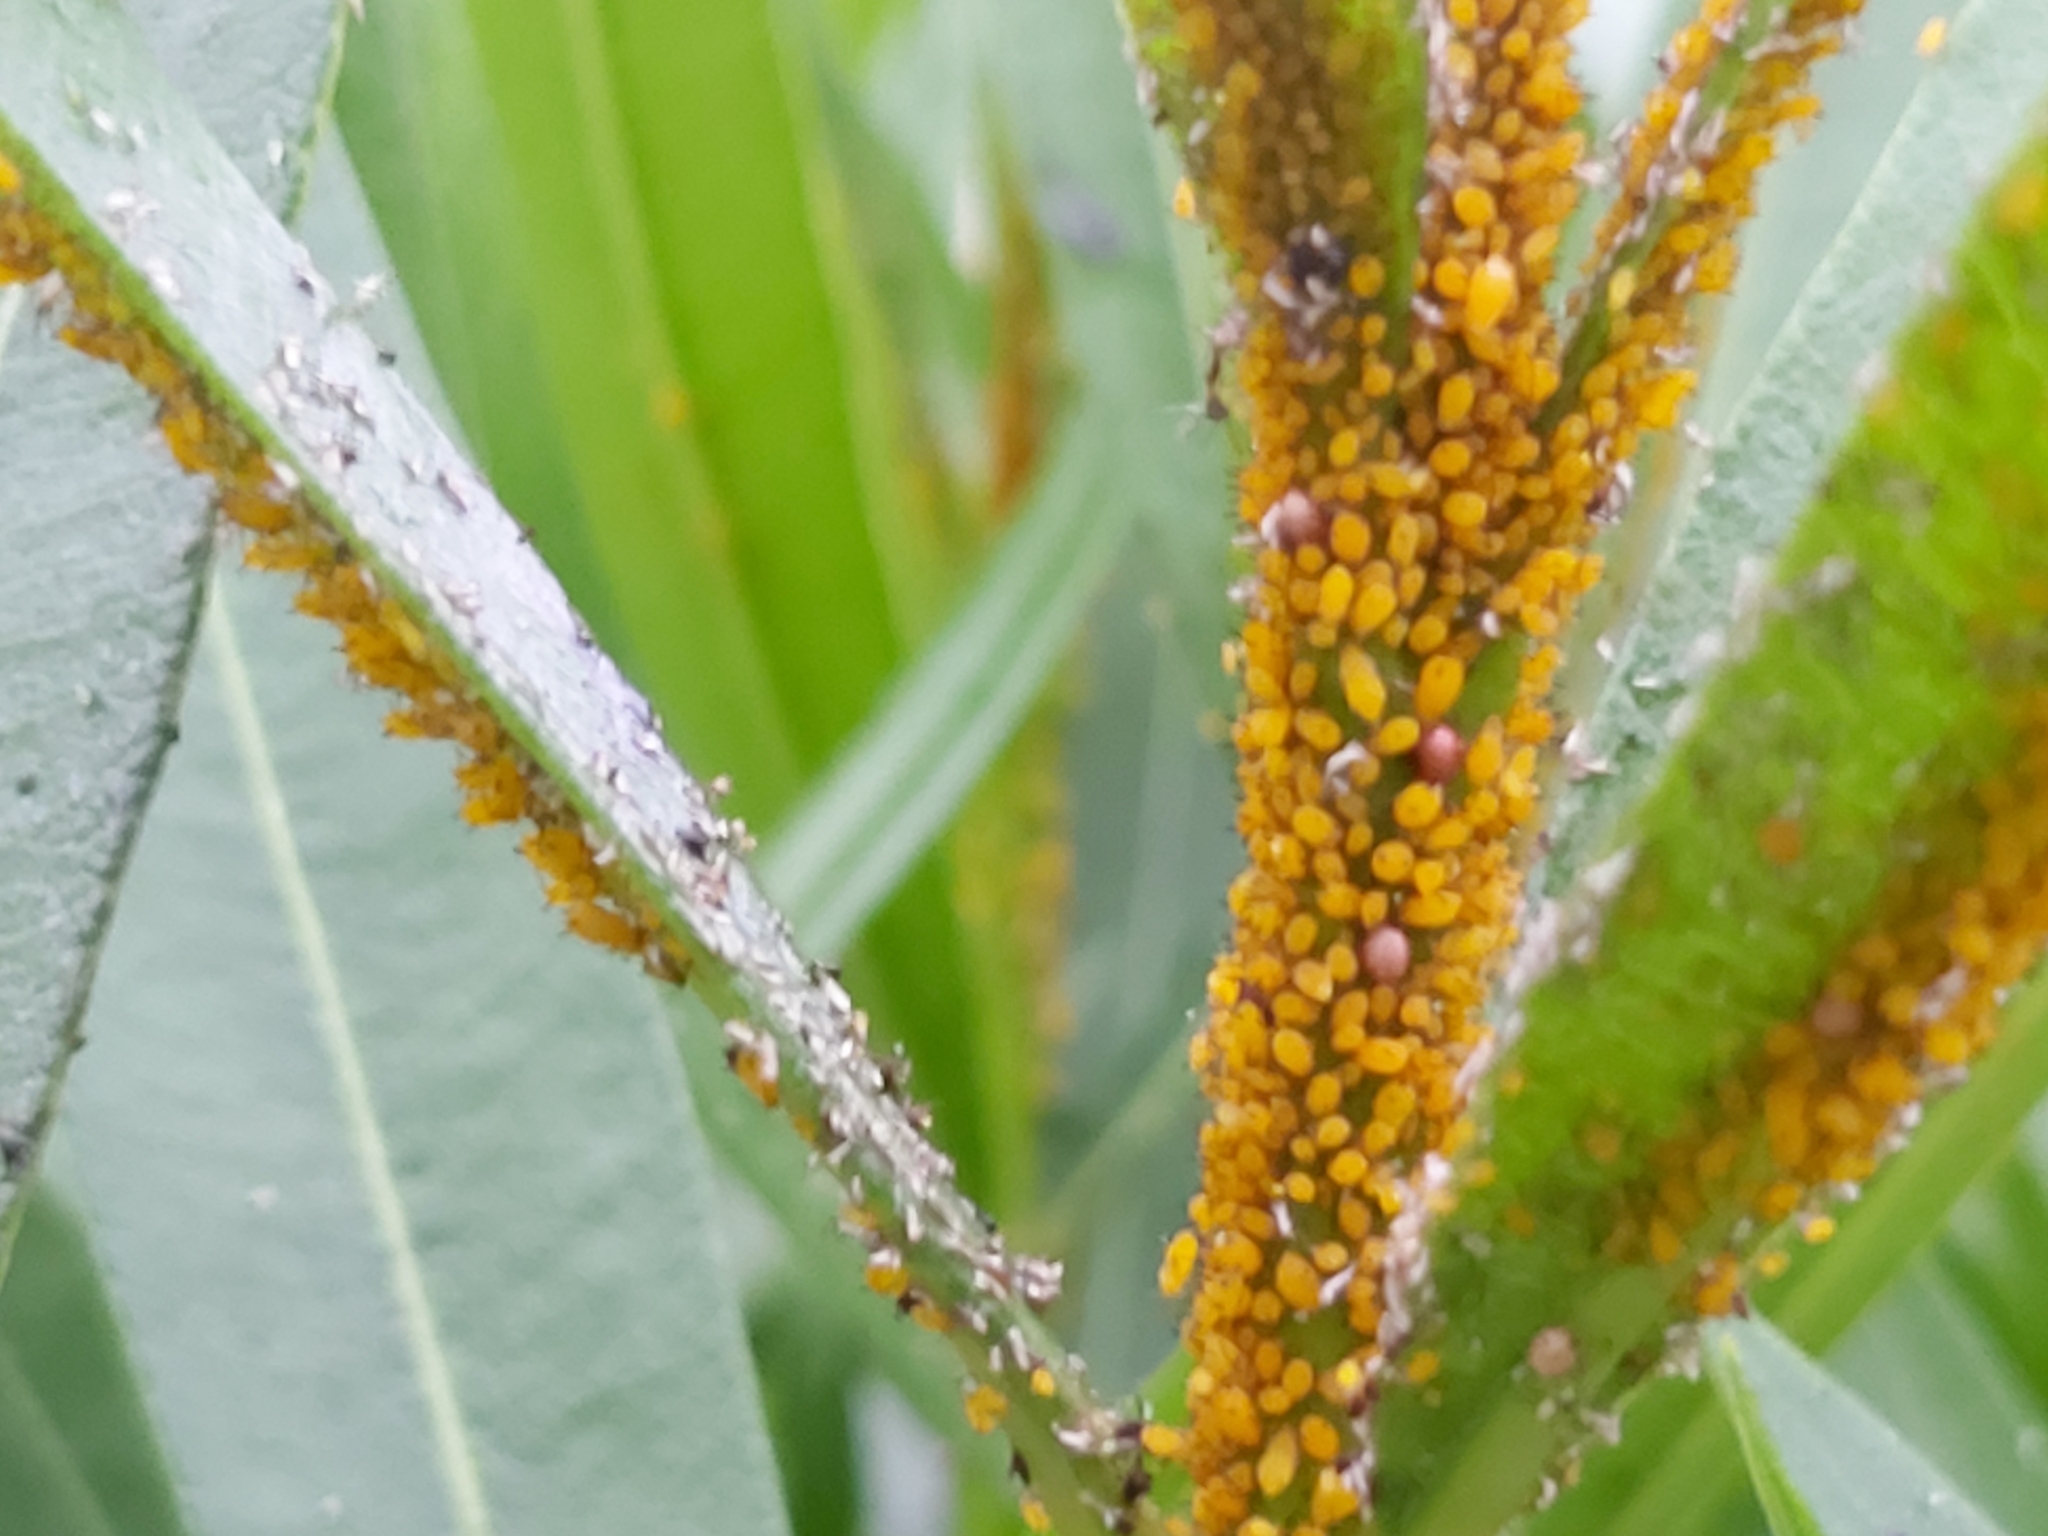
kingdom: Animalia
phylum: Arthropoda
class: Insecta
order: Hemiptera
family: Aphididae
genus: Aphis
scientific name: Aphis nerii
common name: Oleander aphid
